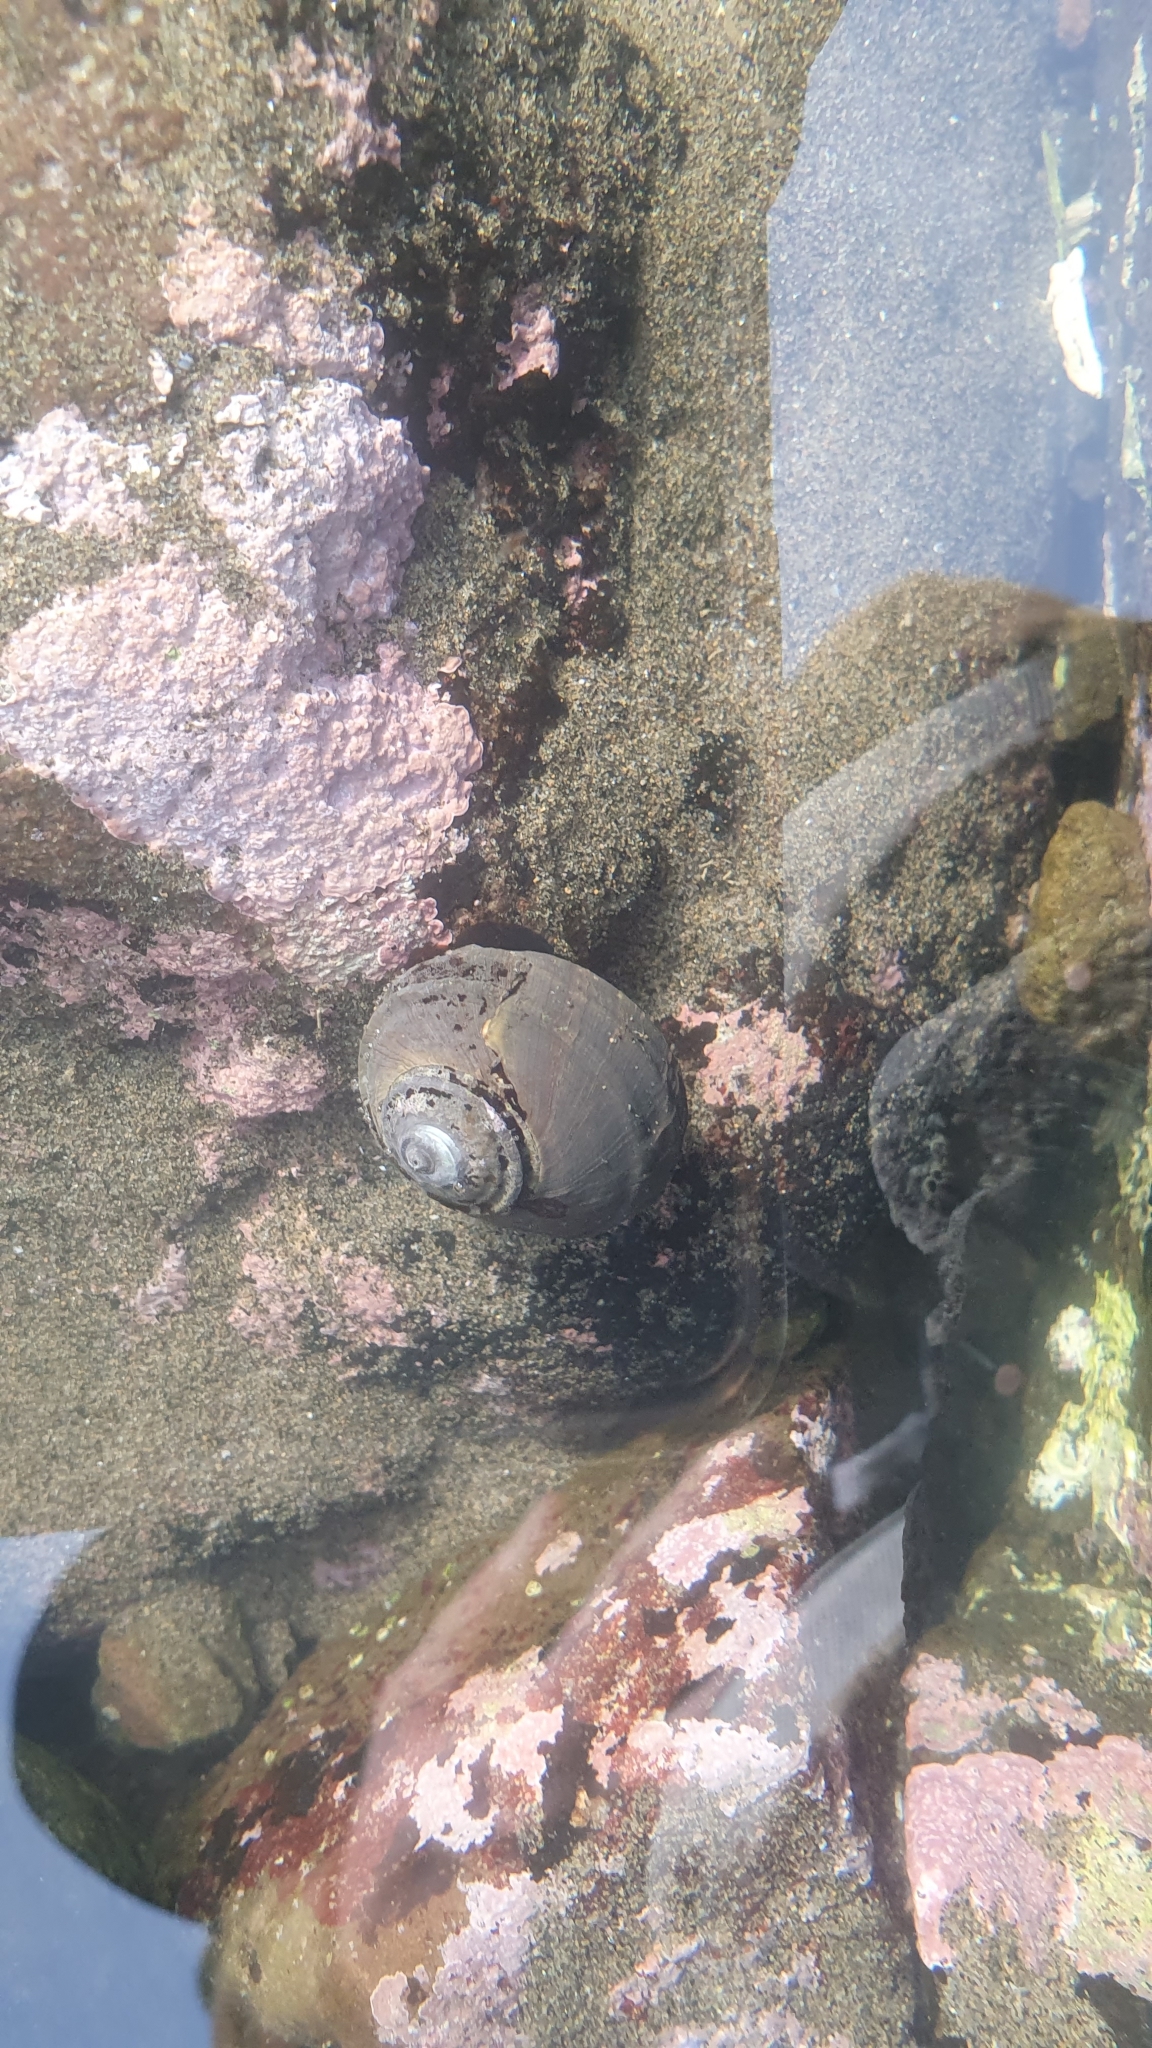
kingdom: Animalia
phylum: Mollusca
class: Gastropoda
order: Trochida
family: Turbinidae
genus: Lunella
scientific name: Lunella smaragda
